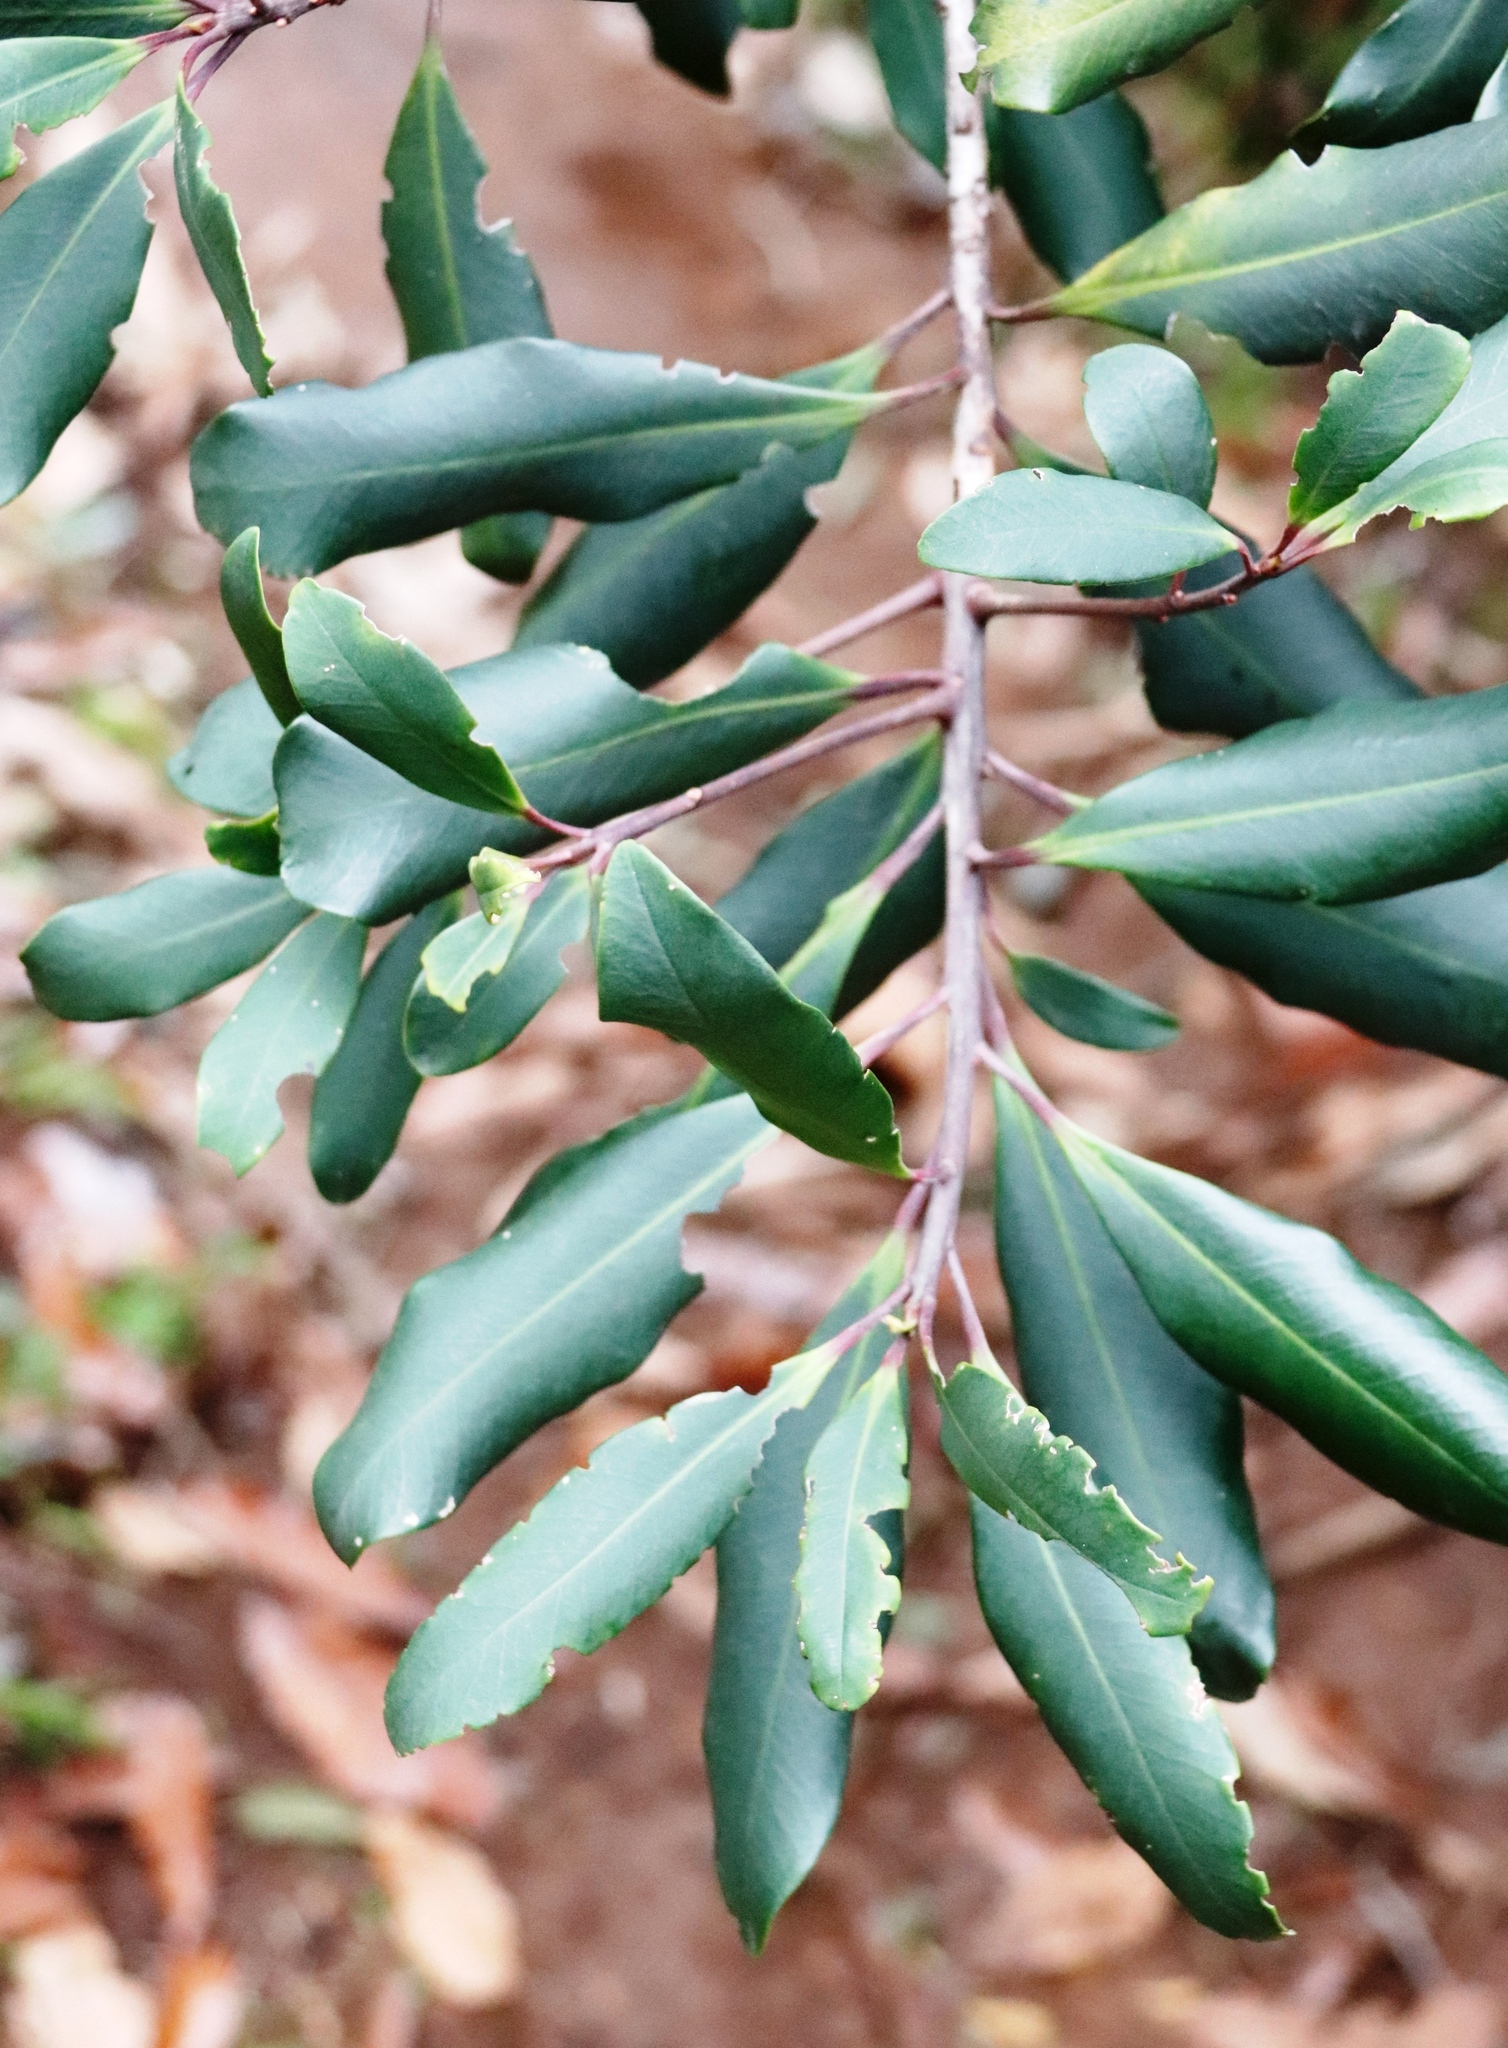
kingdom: Plantae
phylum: Tracheophyta
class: Magnoliopsida
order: Ericales
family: Primulaceae
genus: Myrsine
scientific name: Myrsine melanophloeos
